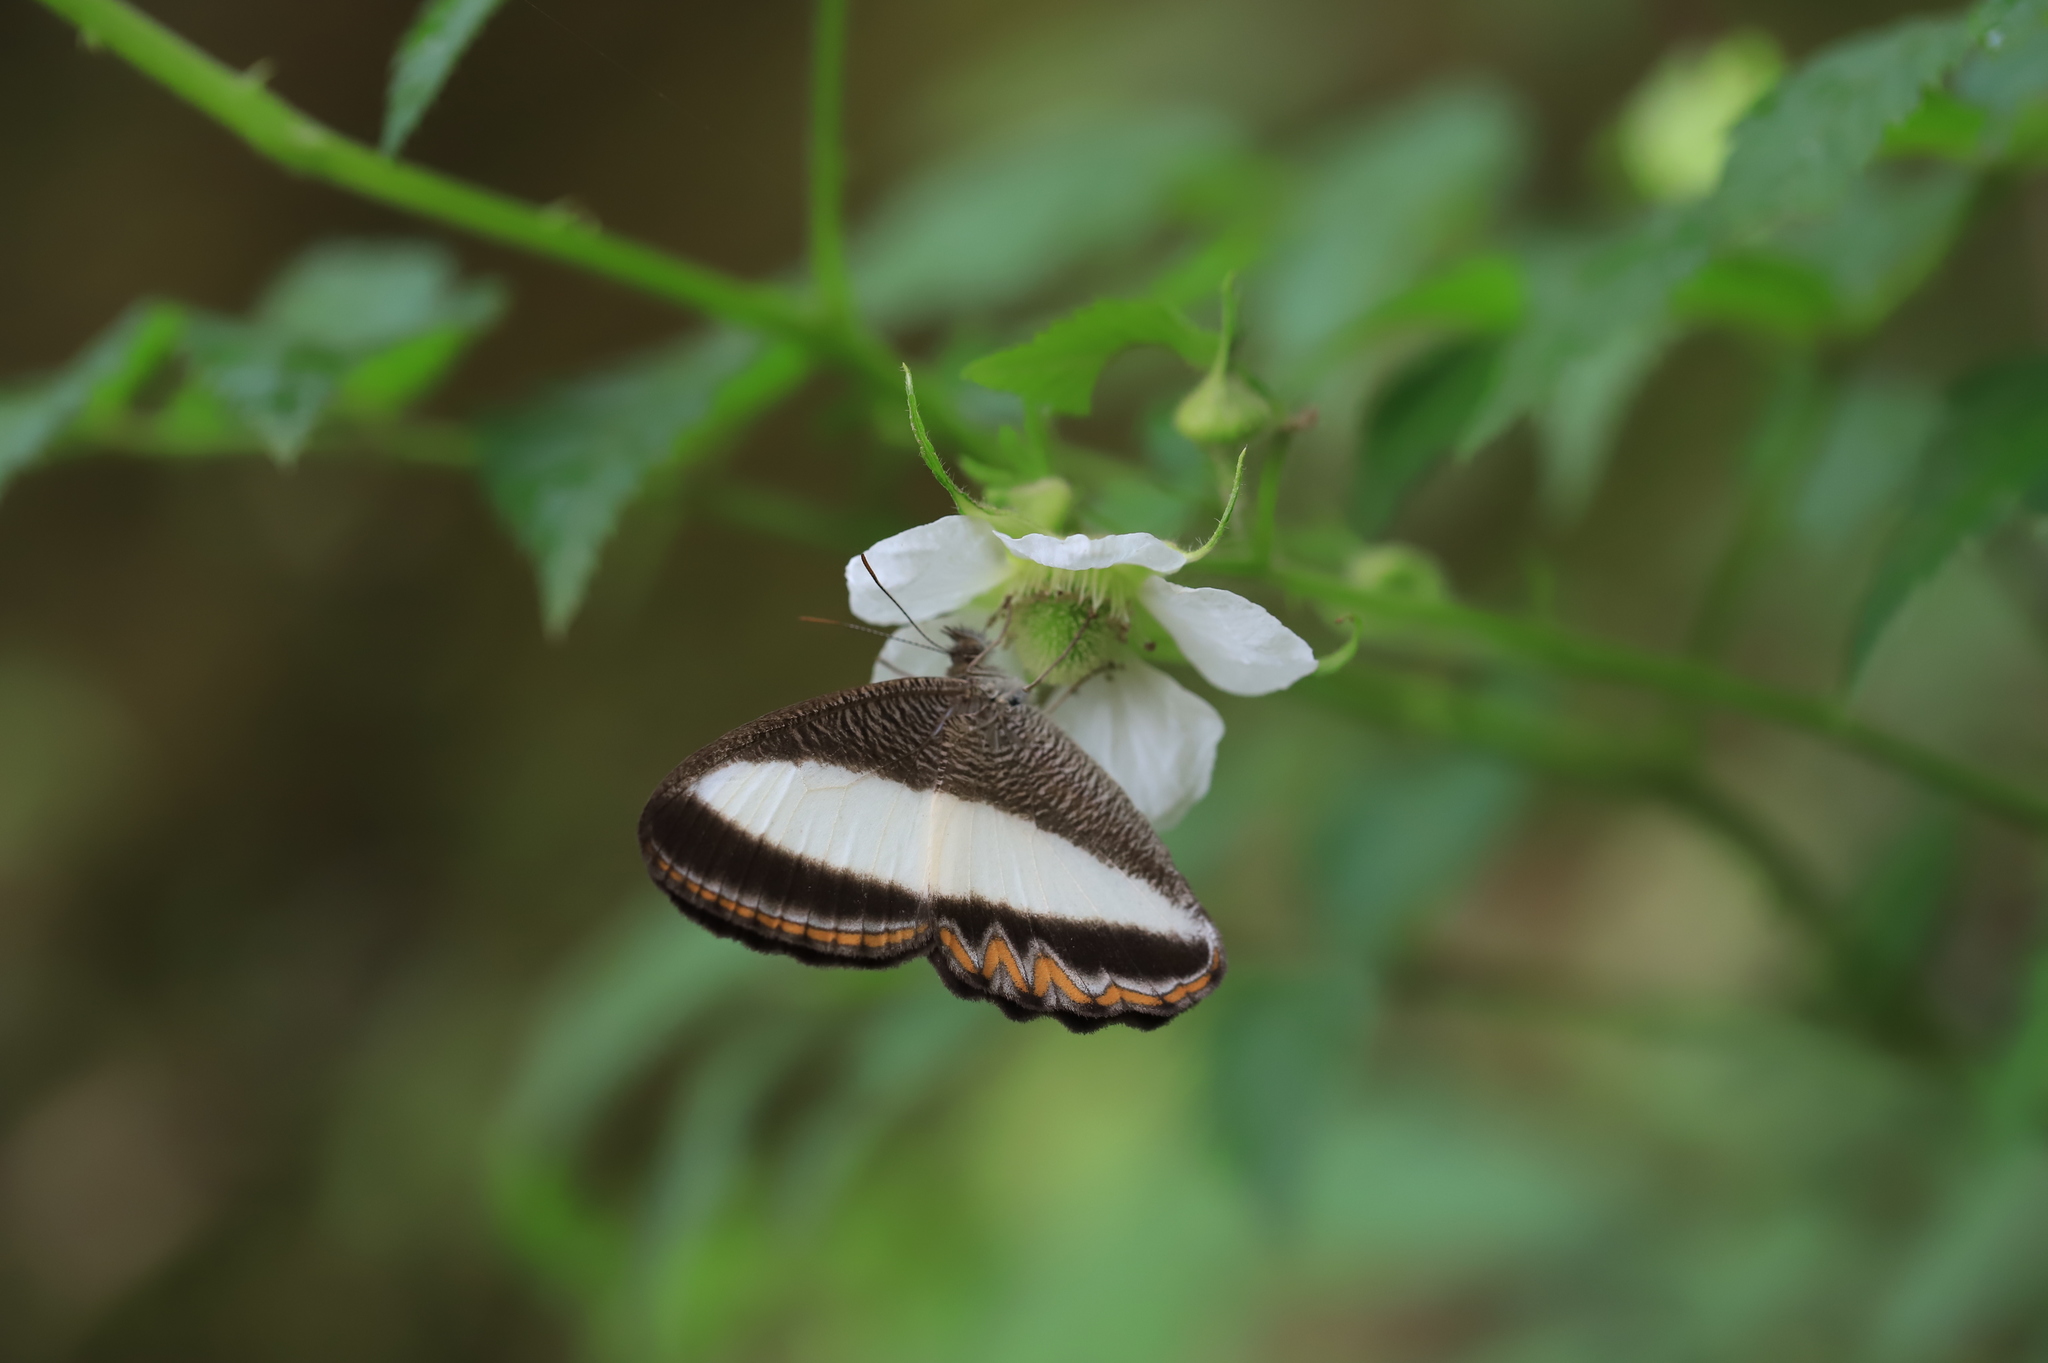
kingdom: Animalia
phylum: Arthropoda
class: Insecta
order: Lepidoptera
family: Nymphalidae
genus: Oressinoma
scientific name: Oressinoma typhla
